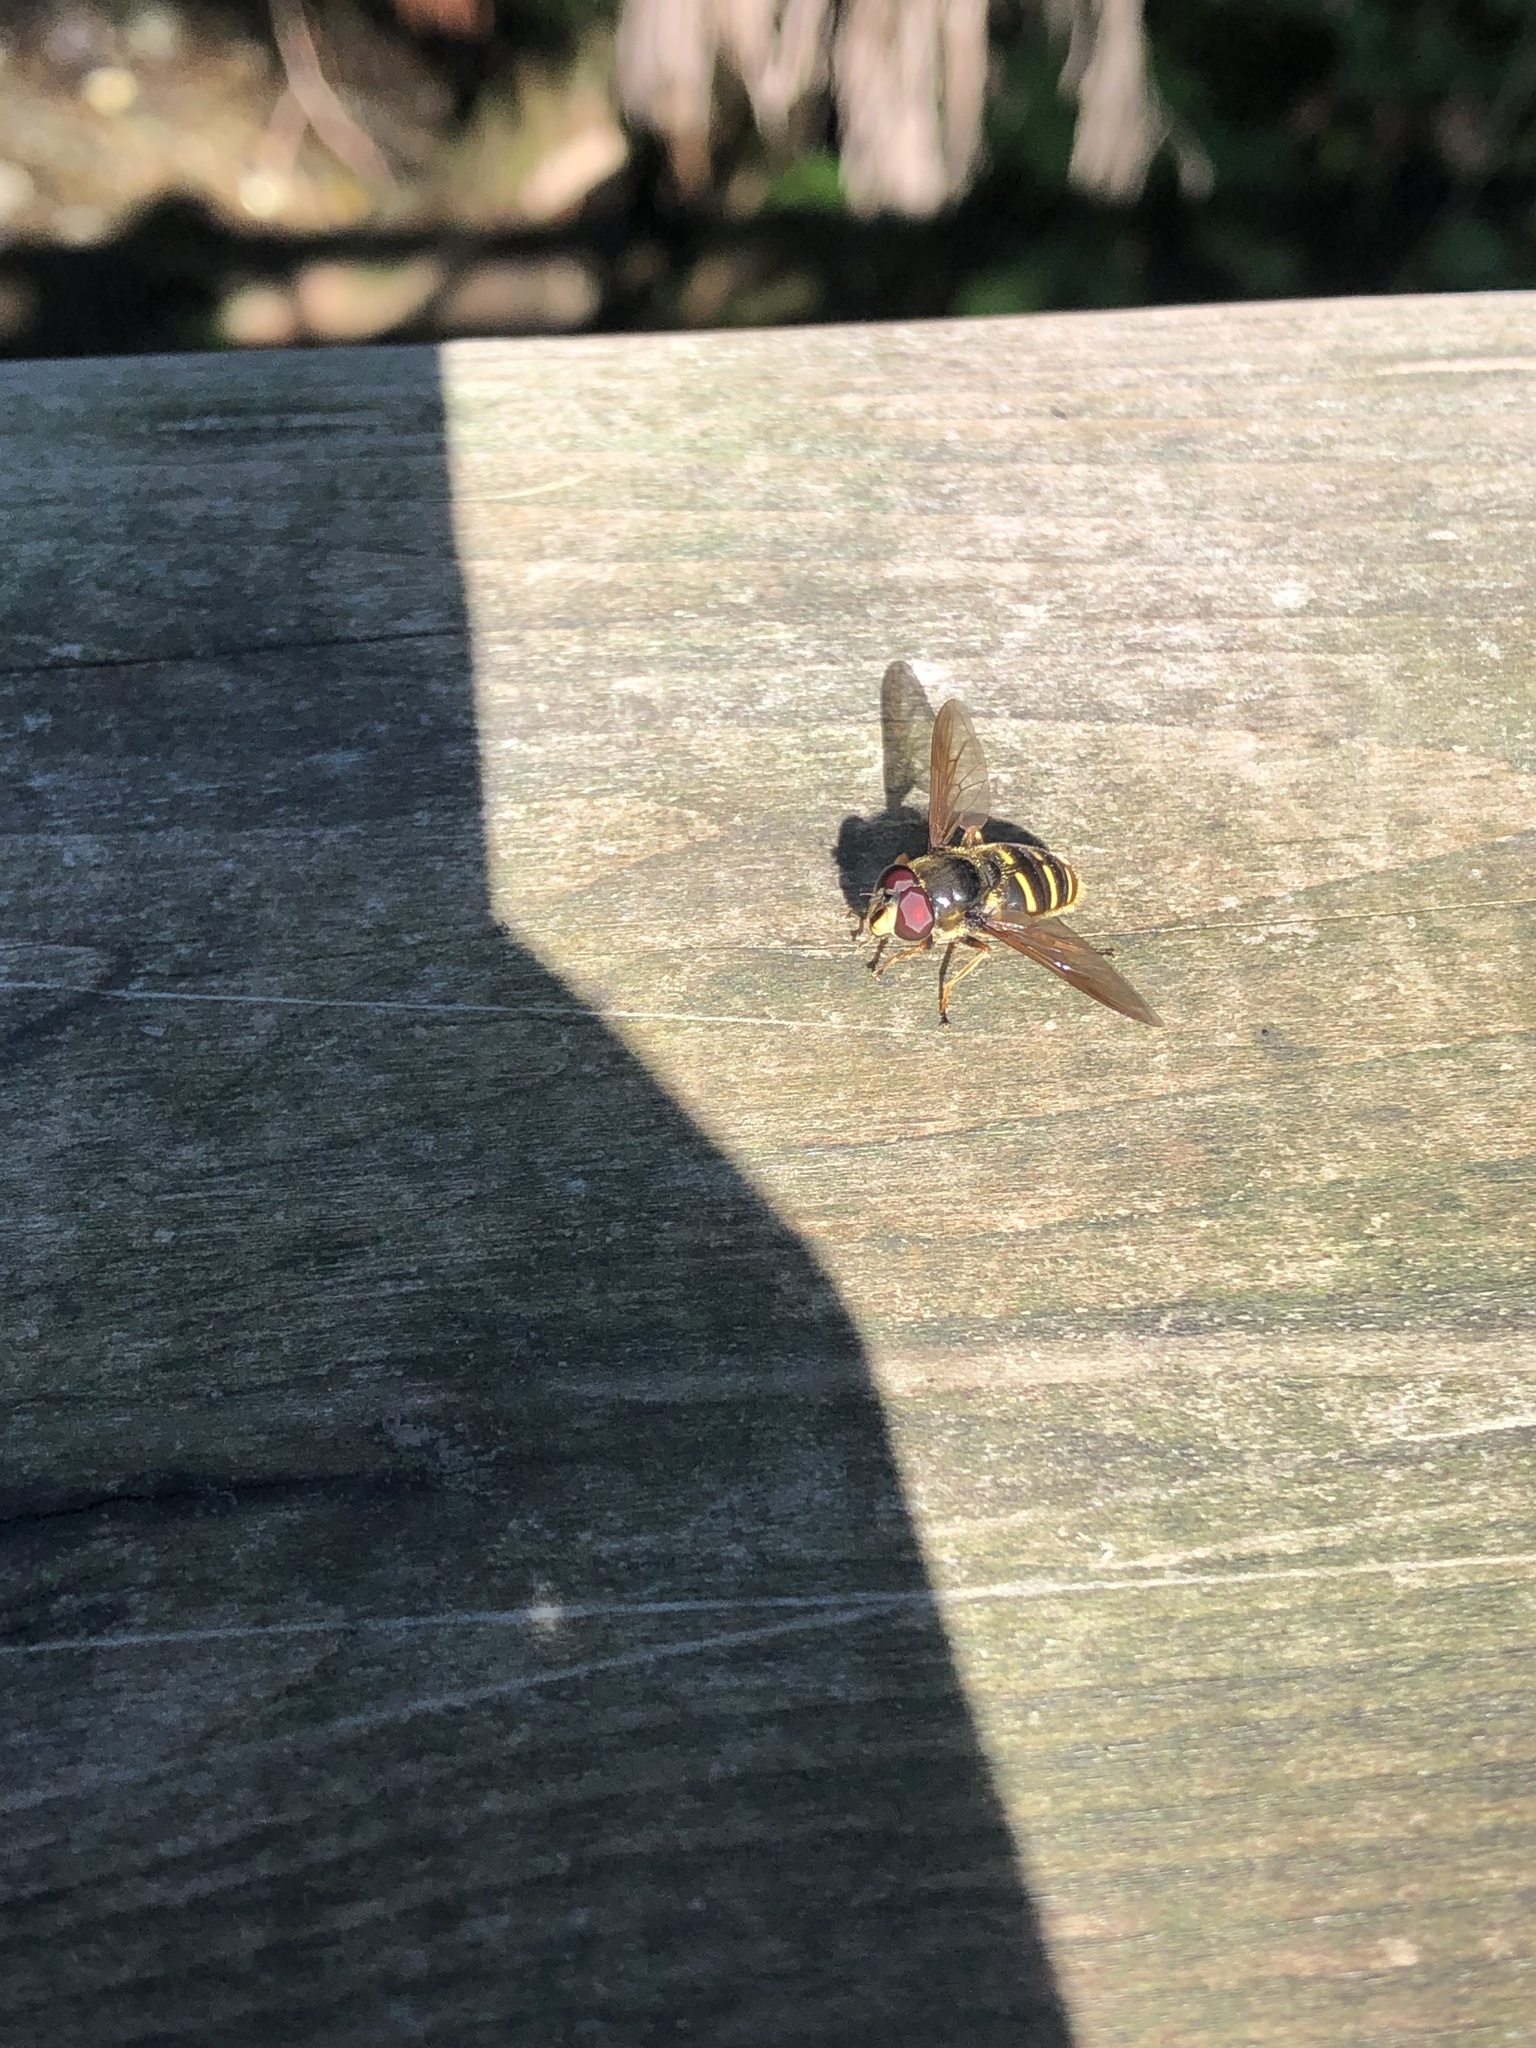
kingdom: Animalia
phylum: Arthropoda
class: Insecta
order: Diptera
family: Syrphidae
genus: Sericomyia
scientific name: Sericomyia chalcopyga
